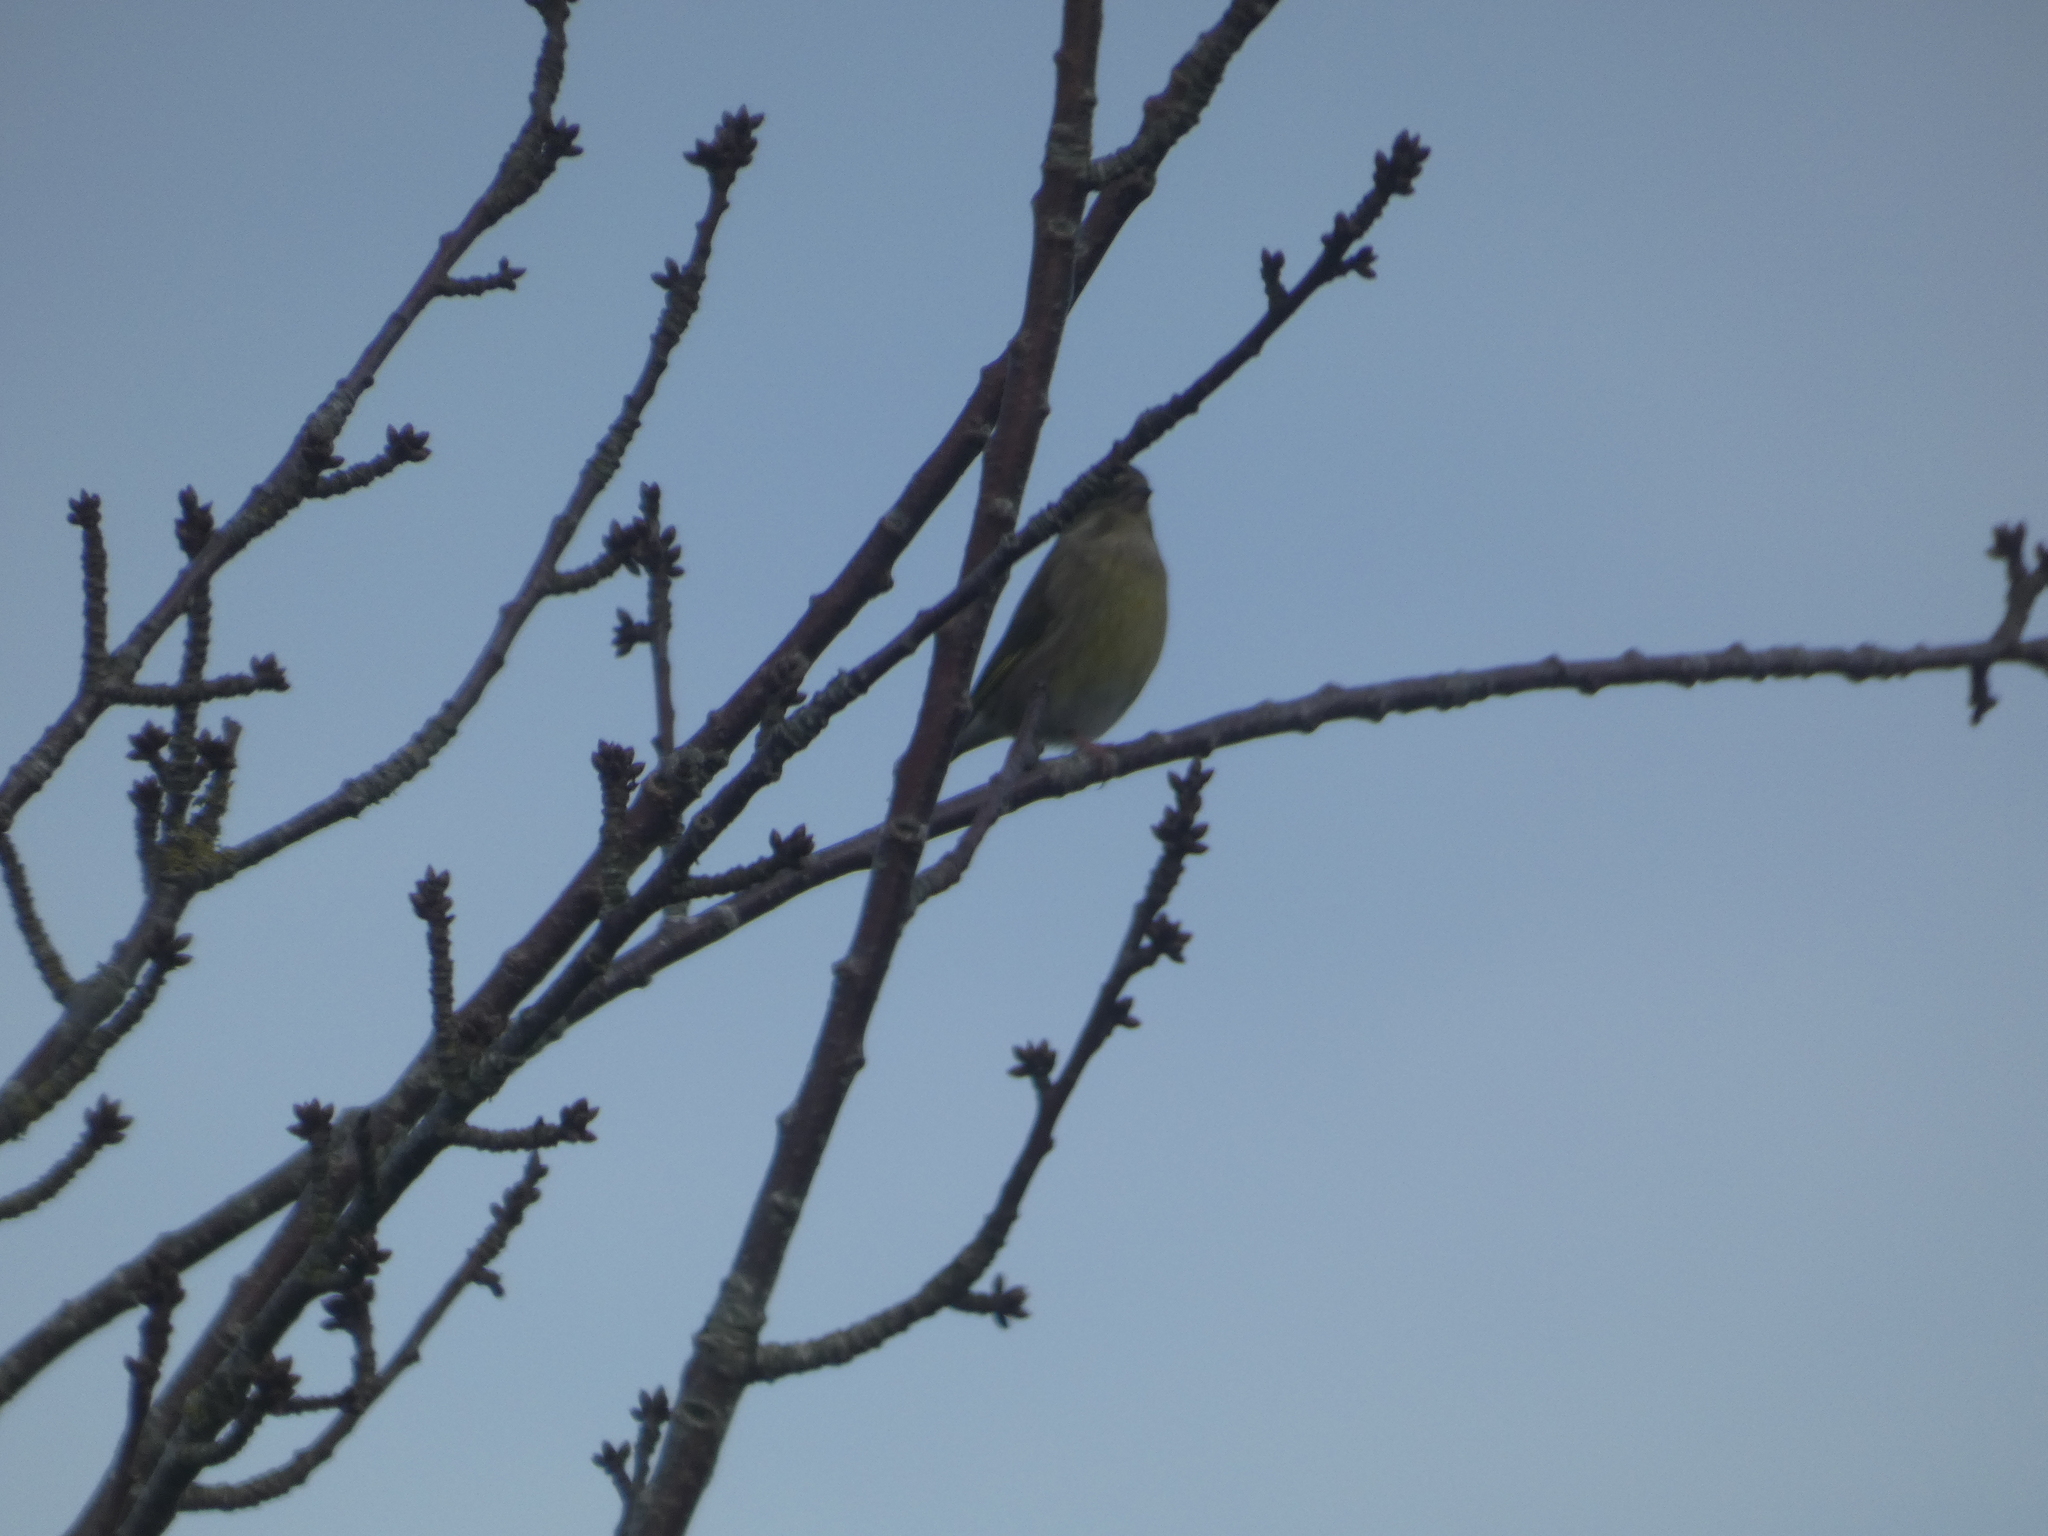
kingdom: Plantae
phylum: Tracheophyta
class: Liliopsida
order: Poales
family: Poaceae
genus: Chloris
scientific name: Chloris chloris
